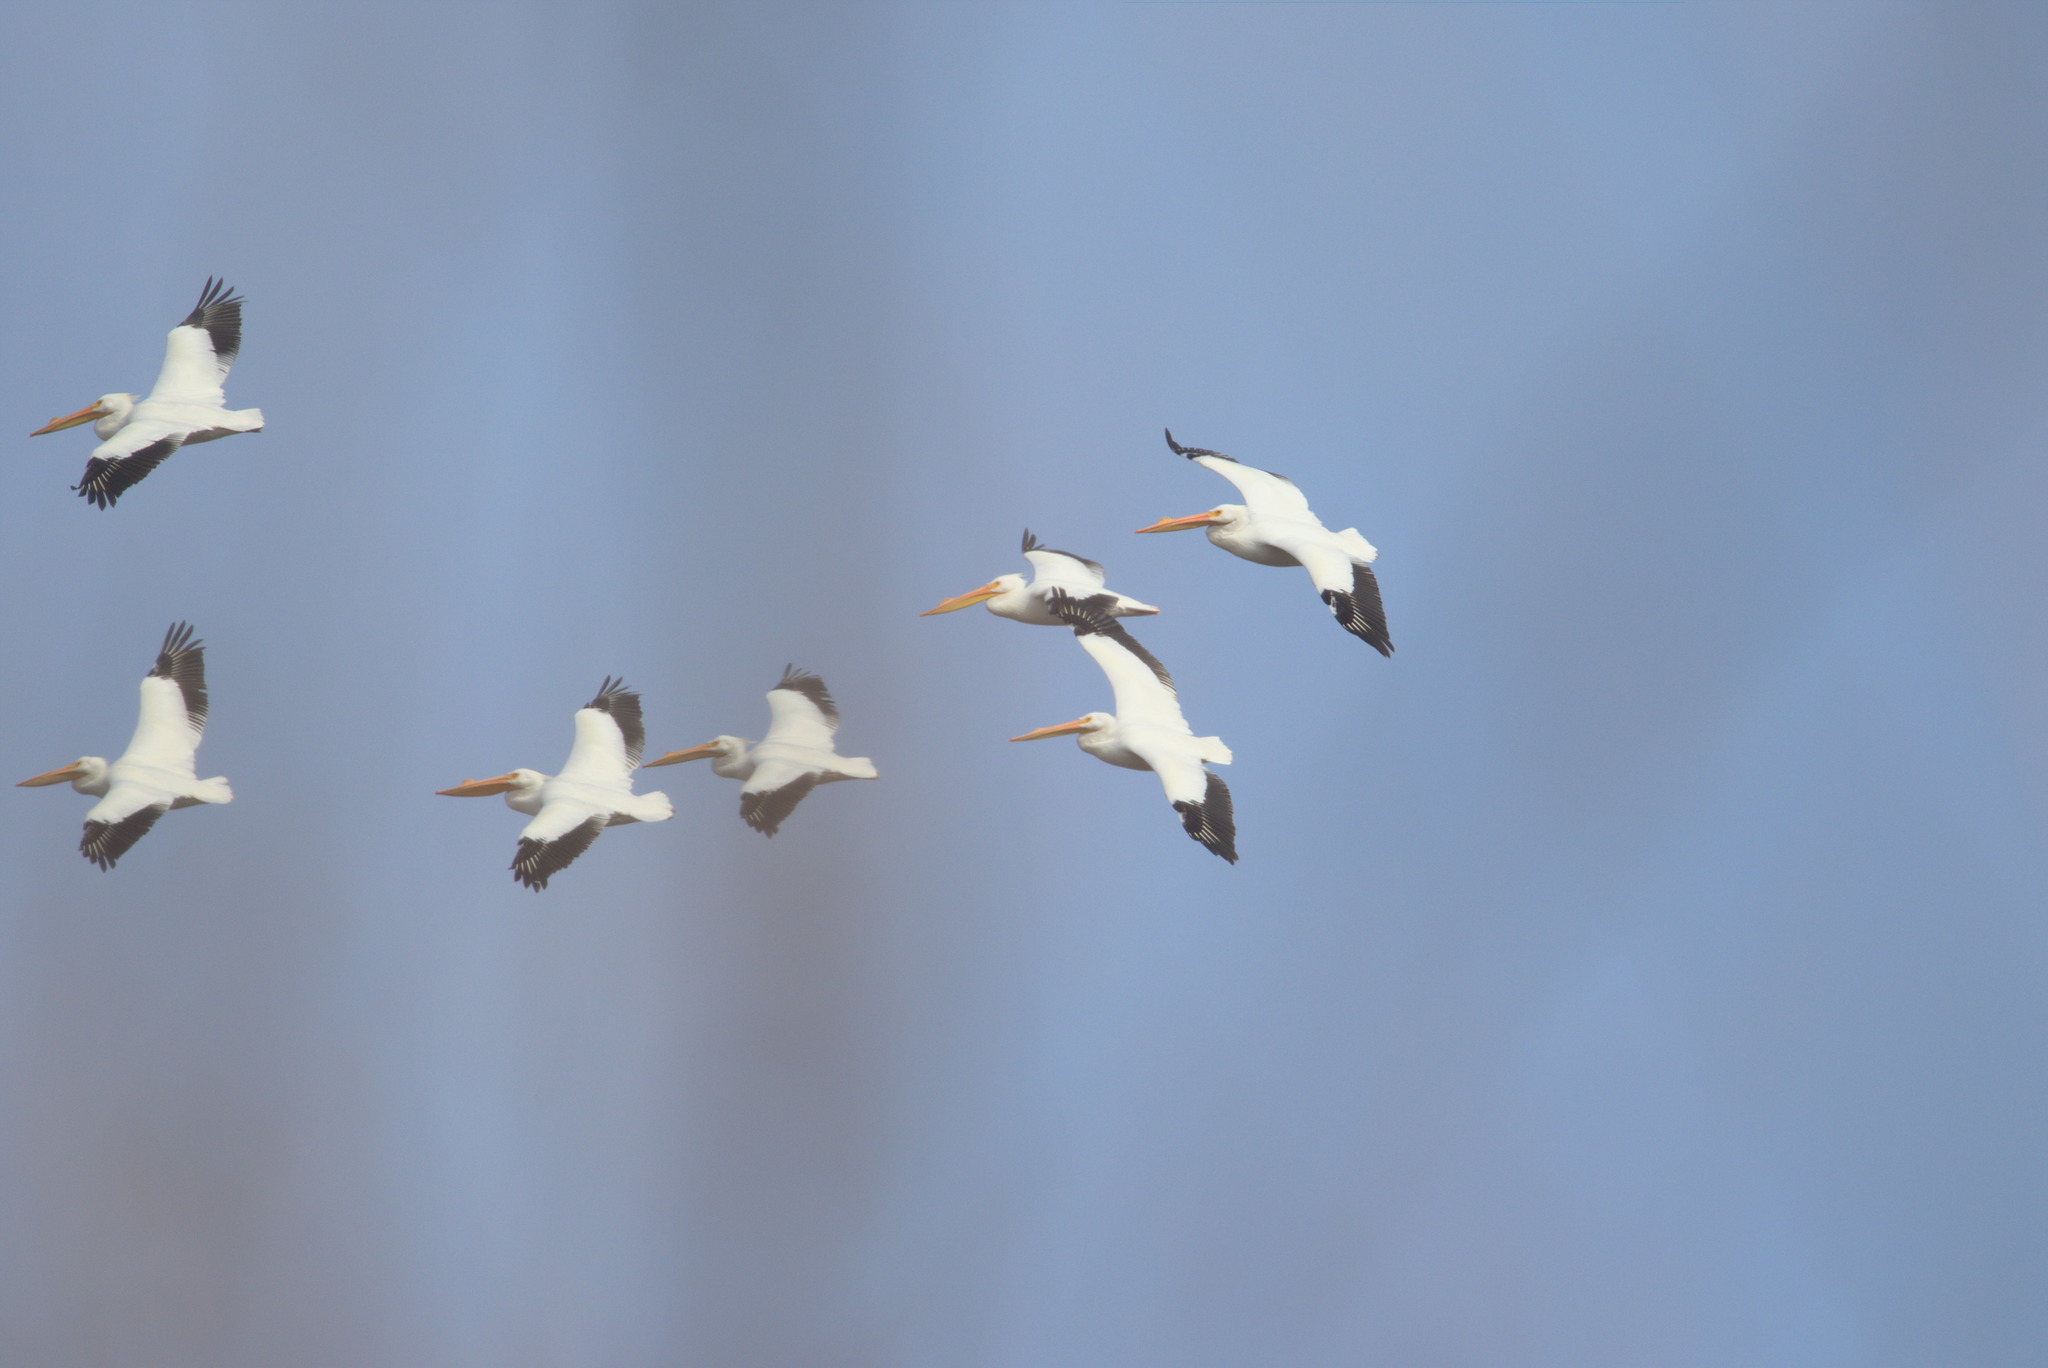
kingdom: Animalia
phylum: Chordata
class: Aves
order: Pelecaniformes
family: Pelecanidae
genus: Pelecanus
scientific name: Pelecanus erythrorhynchos
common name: American white pelican
